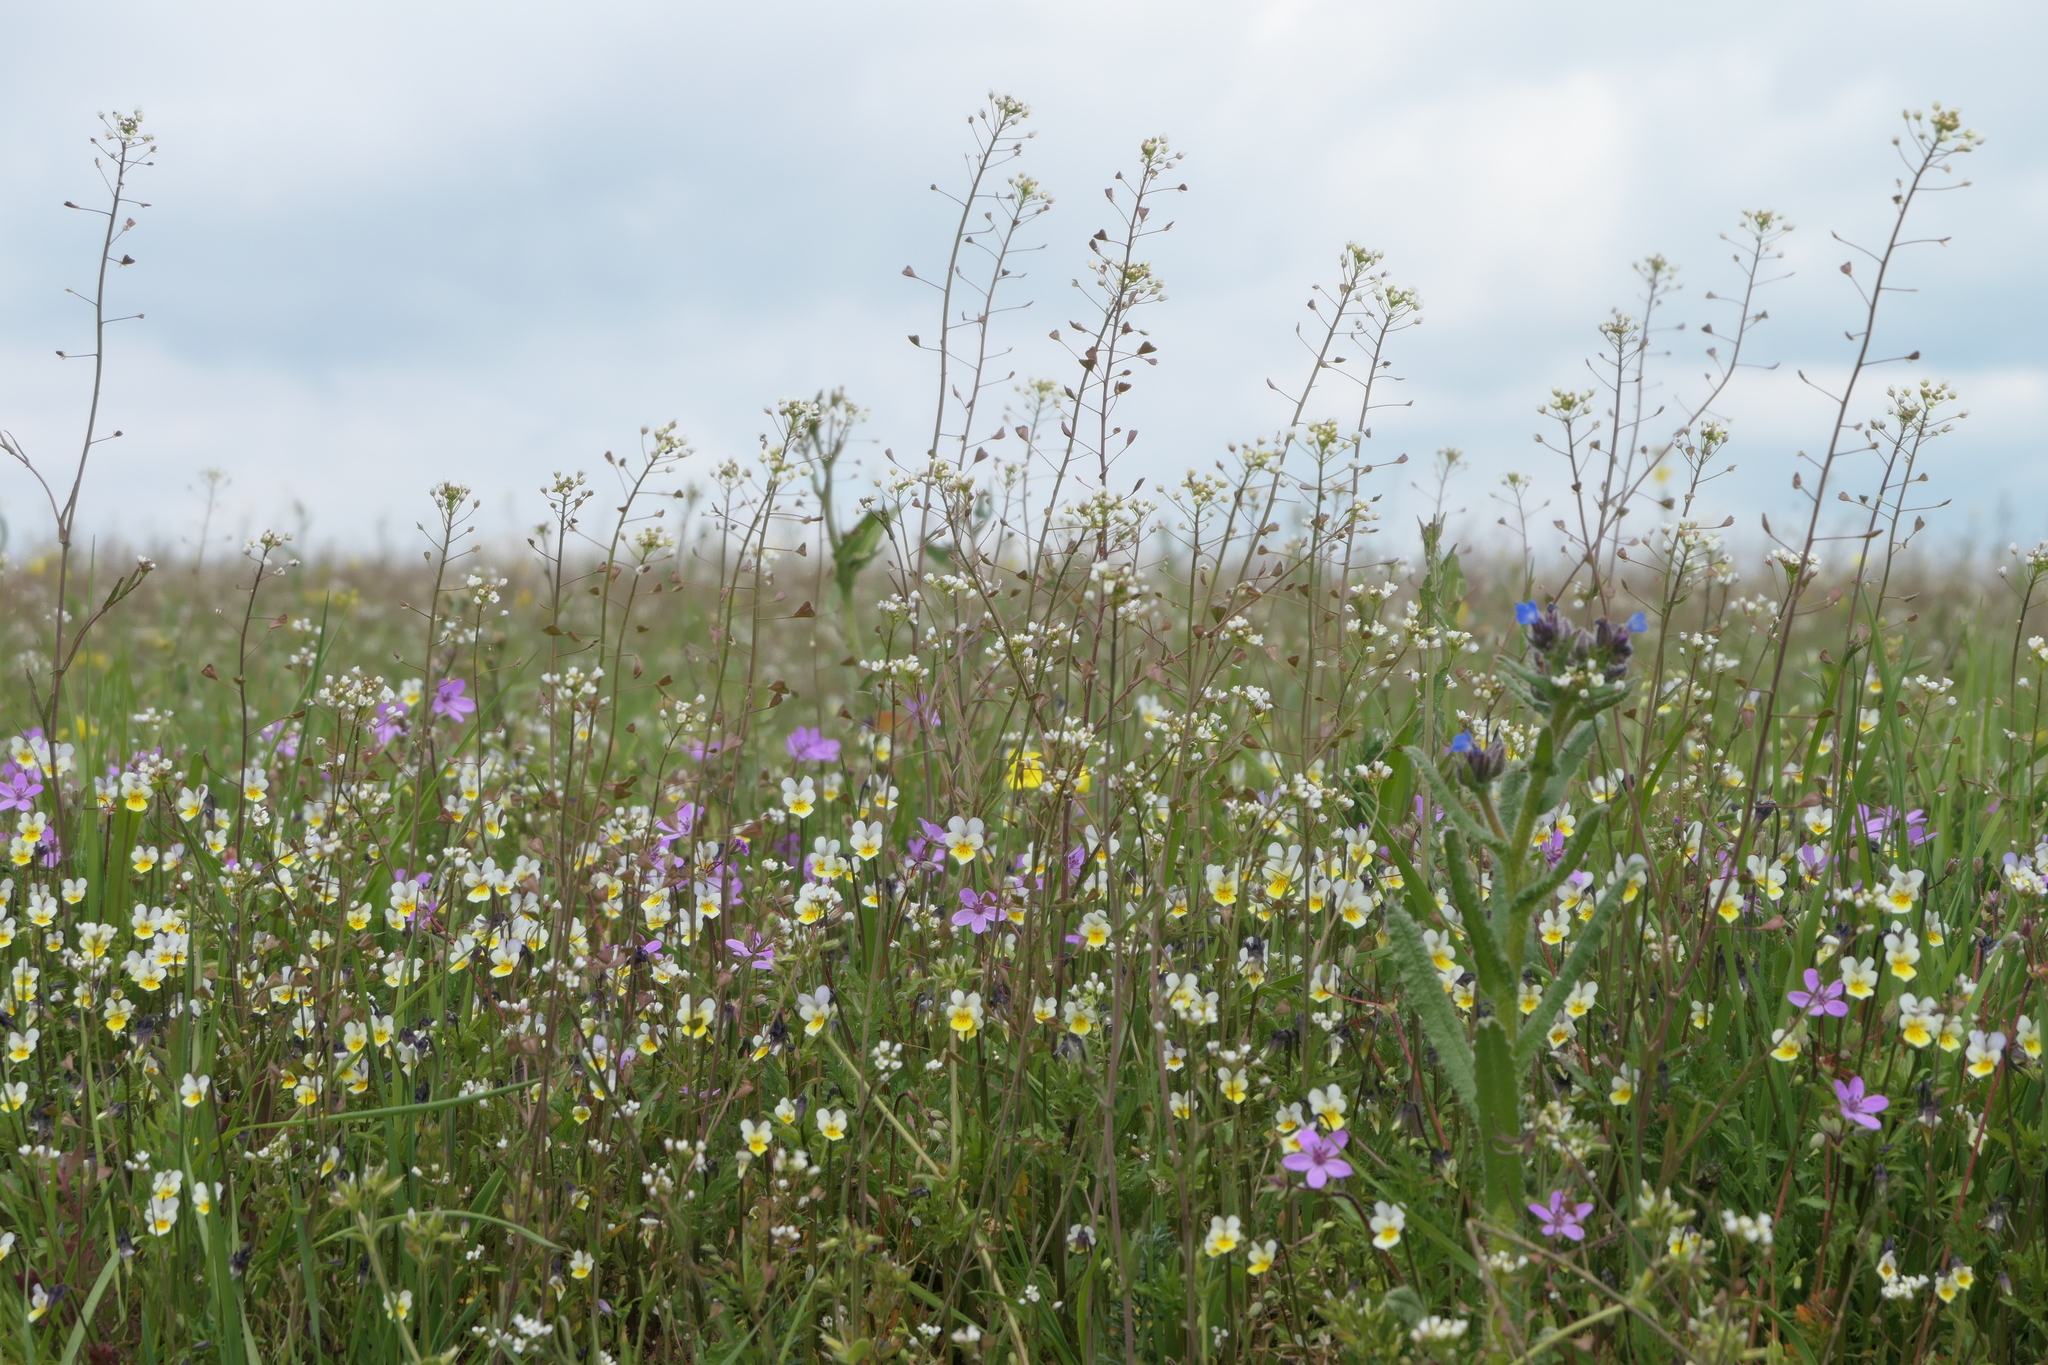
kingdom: Plantae
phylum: Tracheophyta
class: Magnoliopsida
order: Brassicales
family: Brassicaceae
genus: Capsella
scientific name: Capsella bursa-pastoris
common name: Shepherd's purse
